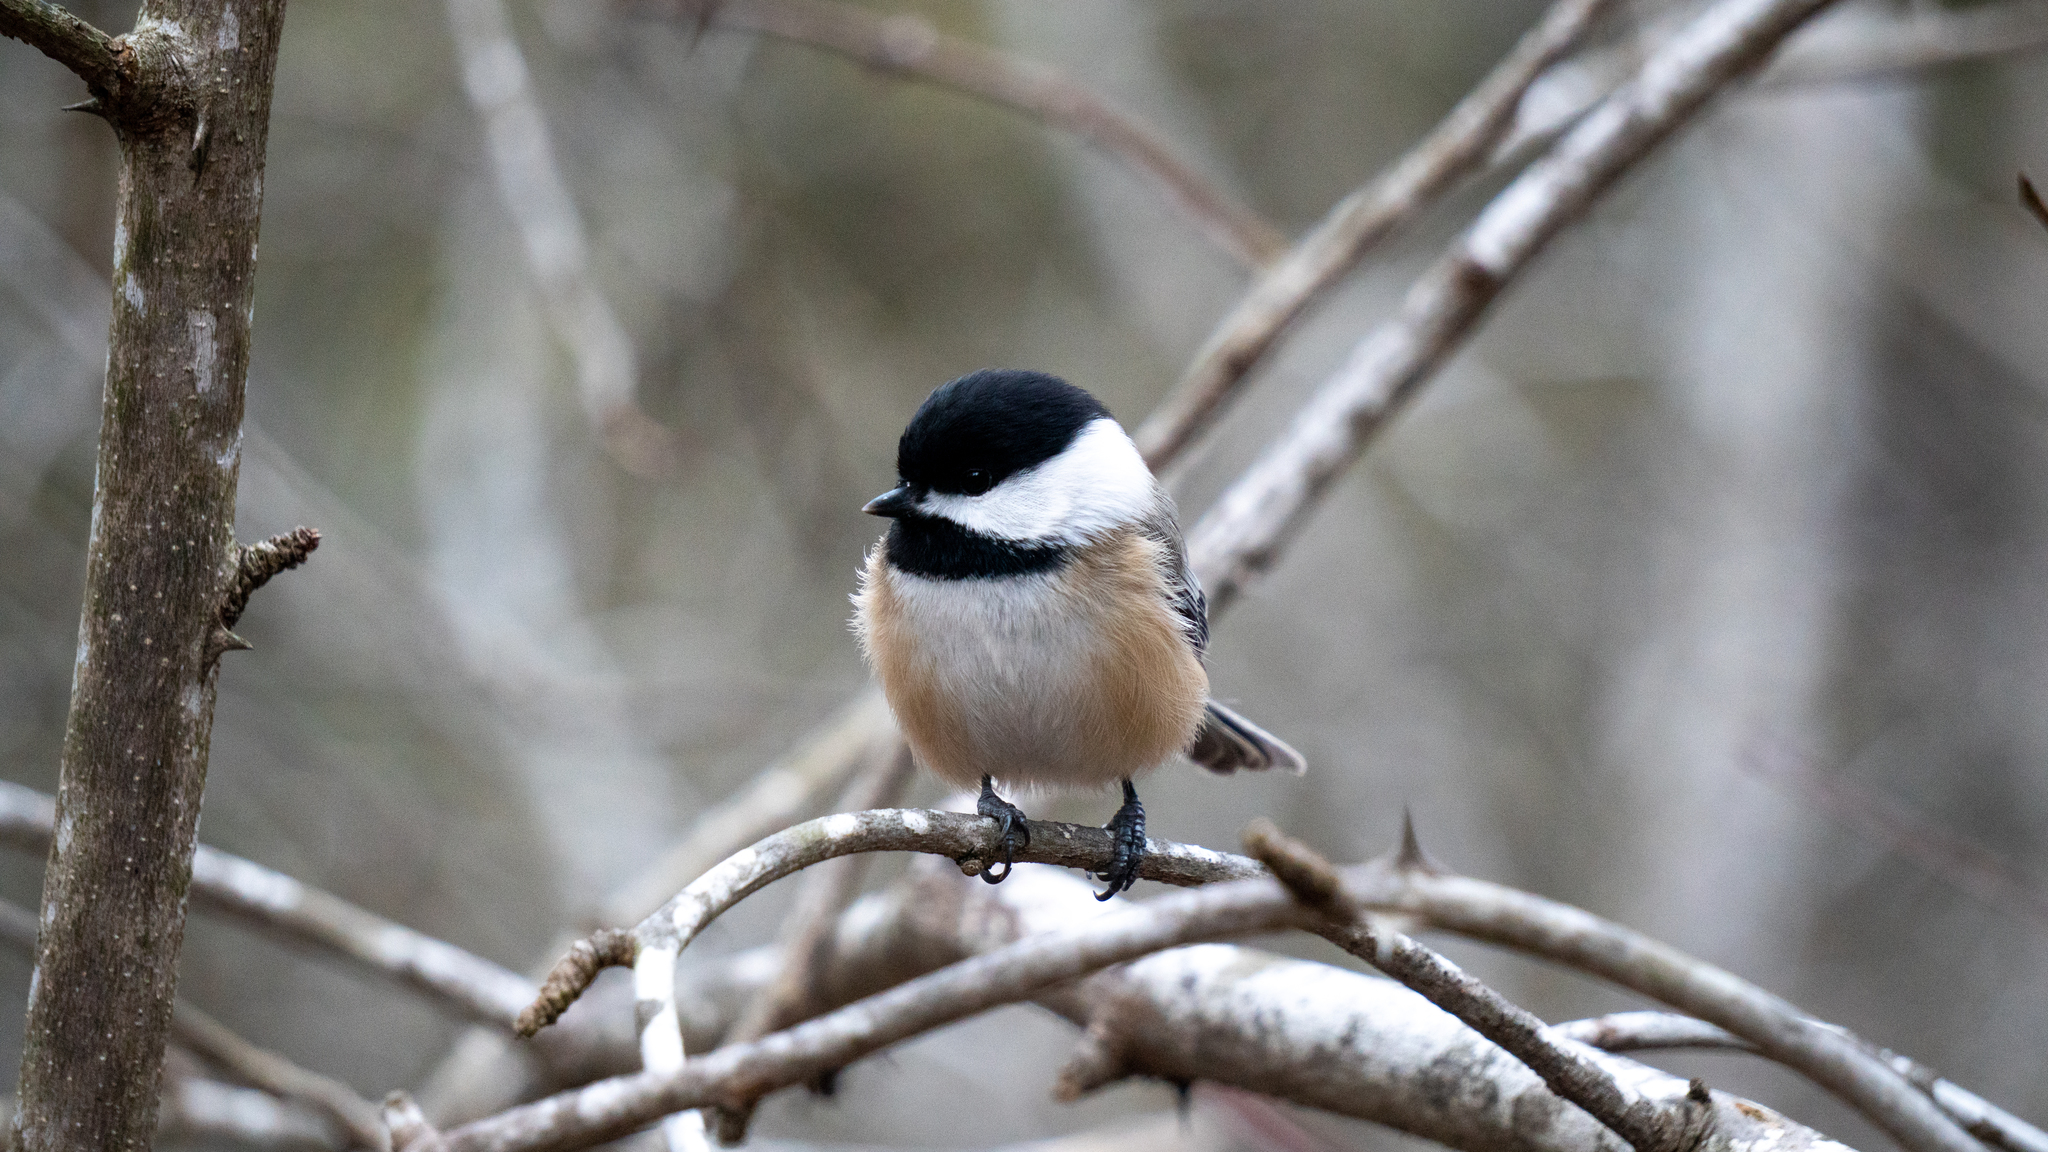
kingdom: Animalia
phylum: Chordata
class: Aves
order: Passeriformes
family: Paridae
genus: Poecile
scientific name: Poecile atricapillus
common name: Black-capped chickadee
